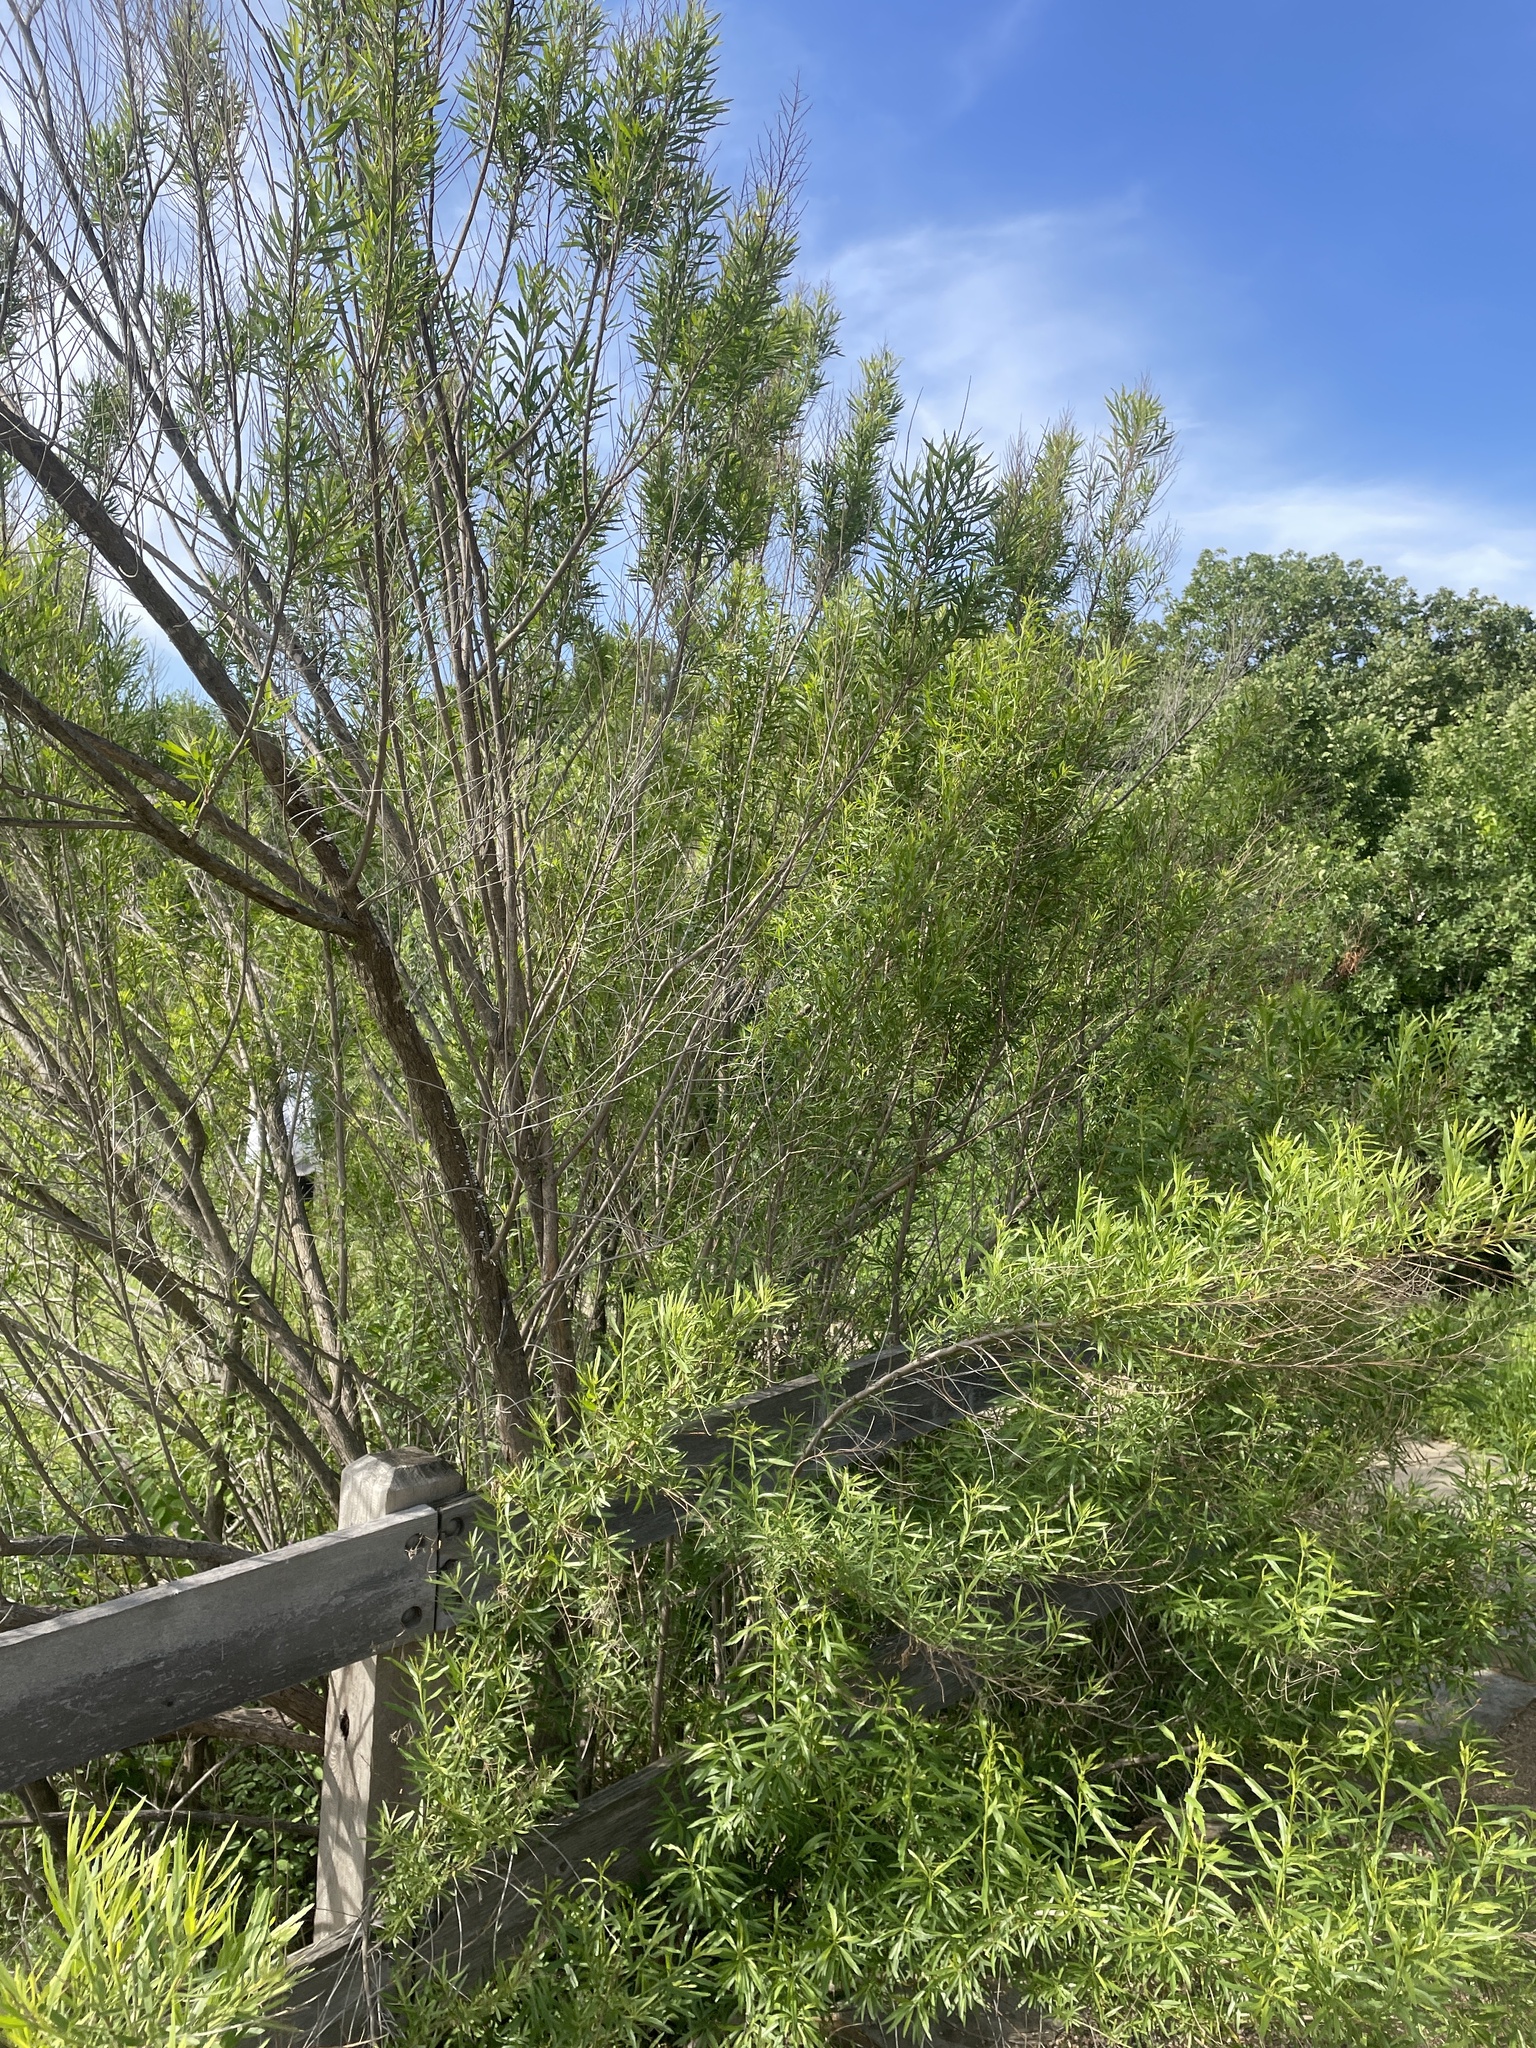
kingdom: Plantae
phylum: Tracheophyta
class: Magnoliopsida
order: Asterales
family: Asteraceae
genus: Baccharis
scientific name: Baccharis neglecta
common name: Roosevelt-weed
